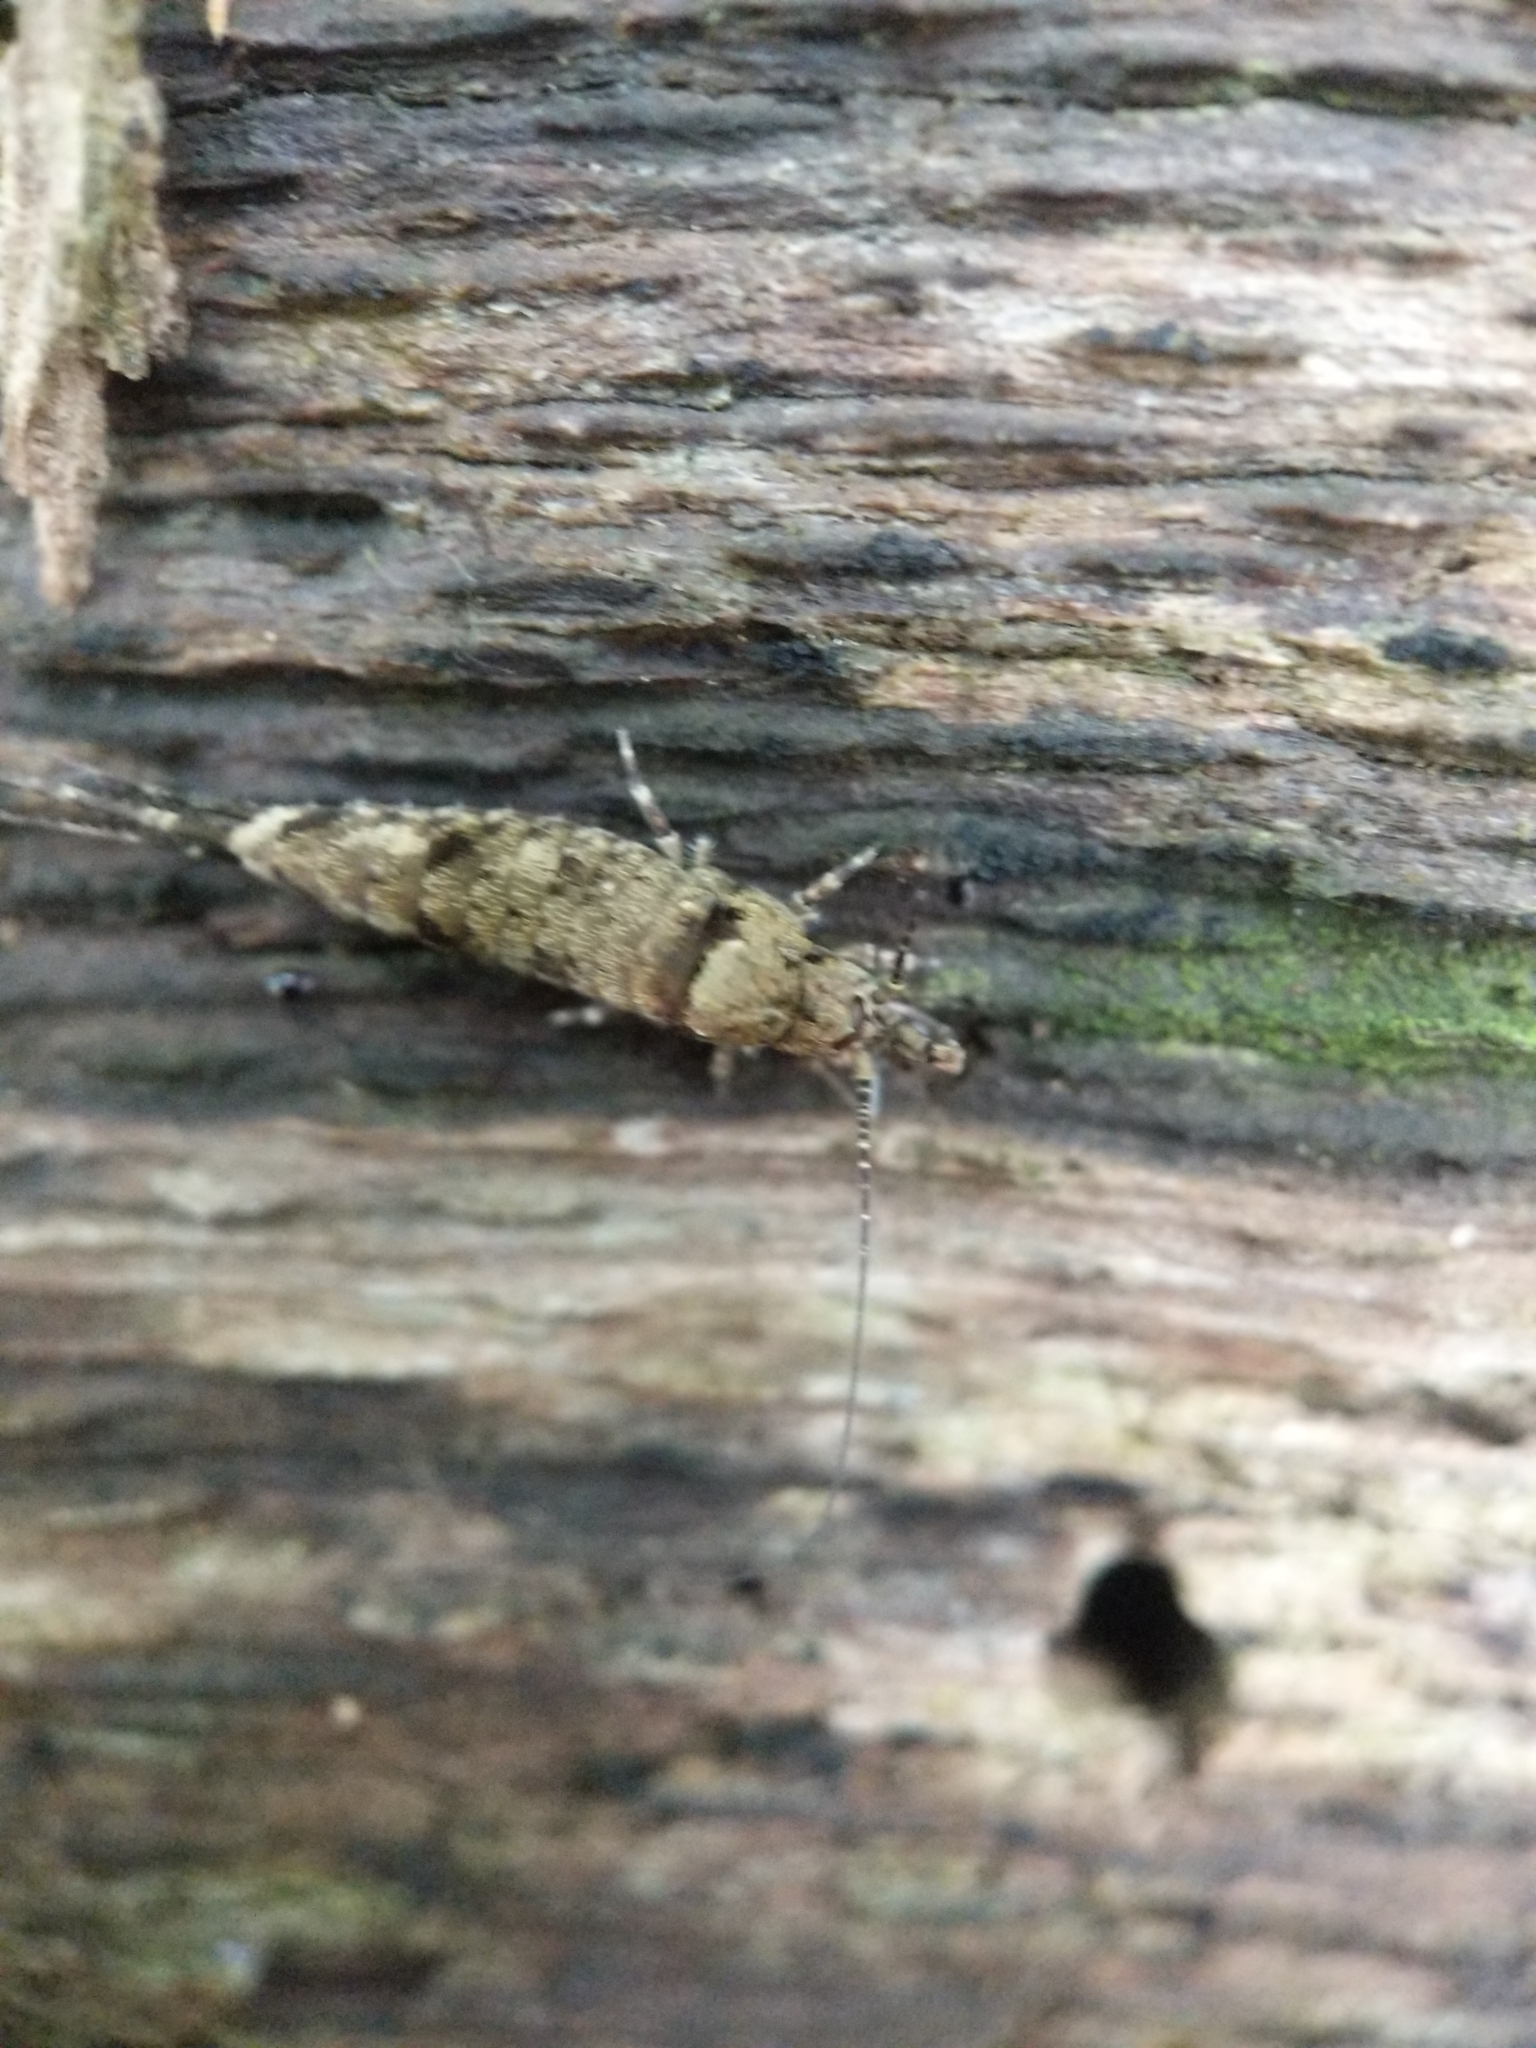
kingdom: Animalia
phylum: Arthropoda
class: Insecta
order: Archaeognatha
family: Machilidae
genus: Trigoniophthalmus
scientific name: Trigoniophthalmus alternatus
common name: Jumping bristletail
